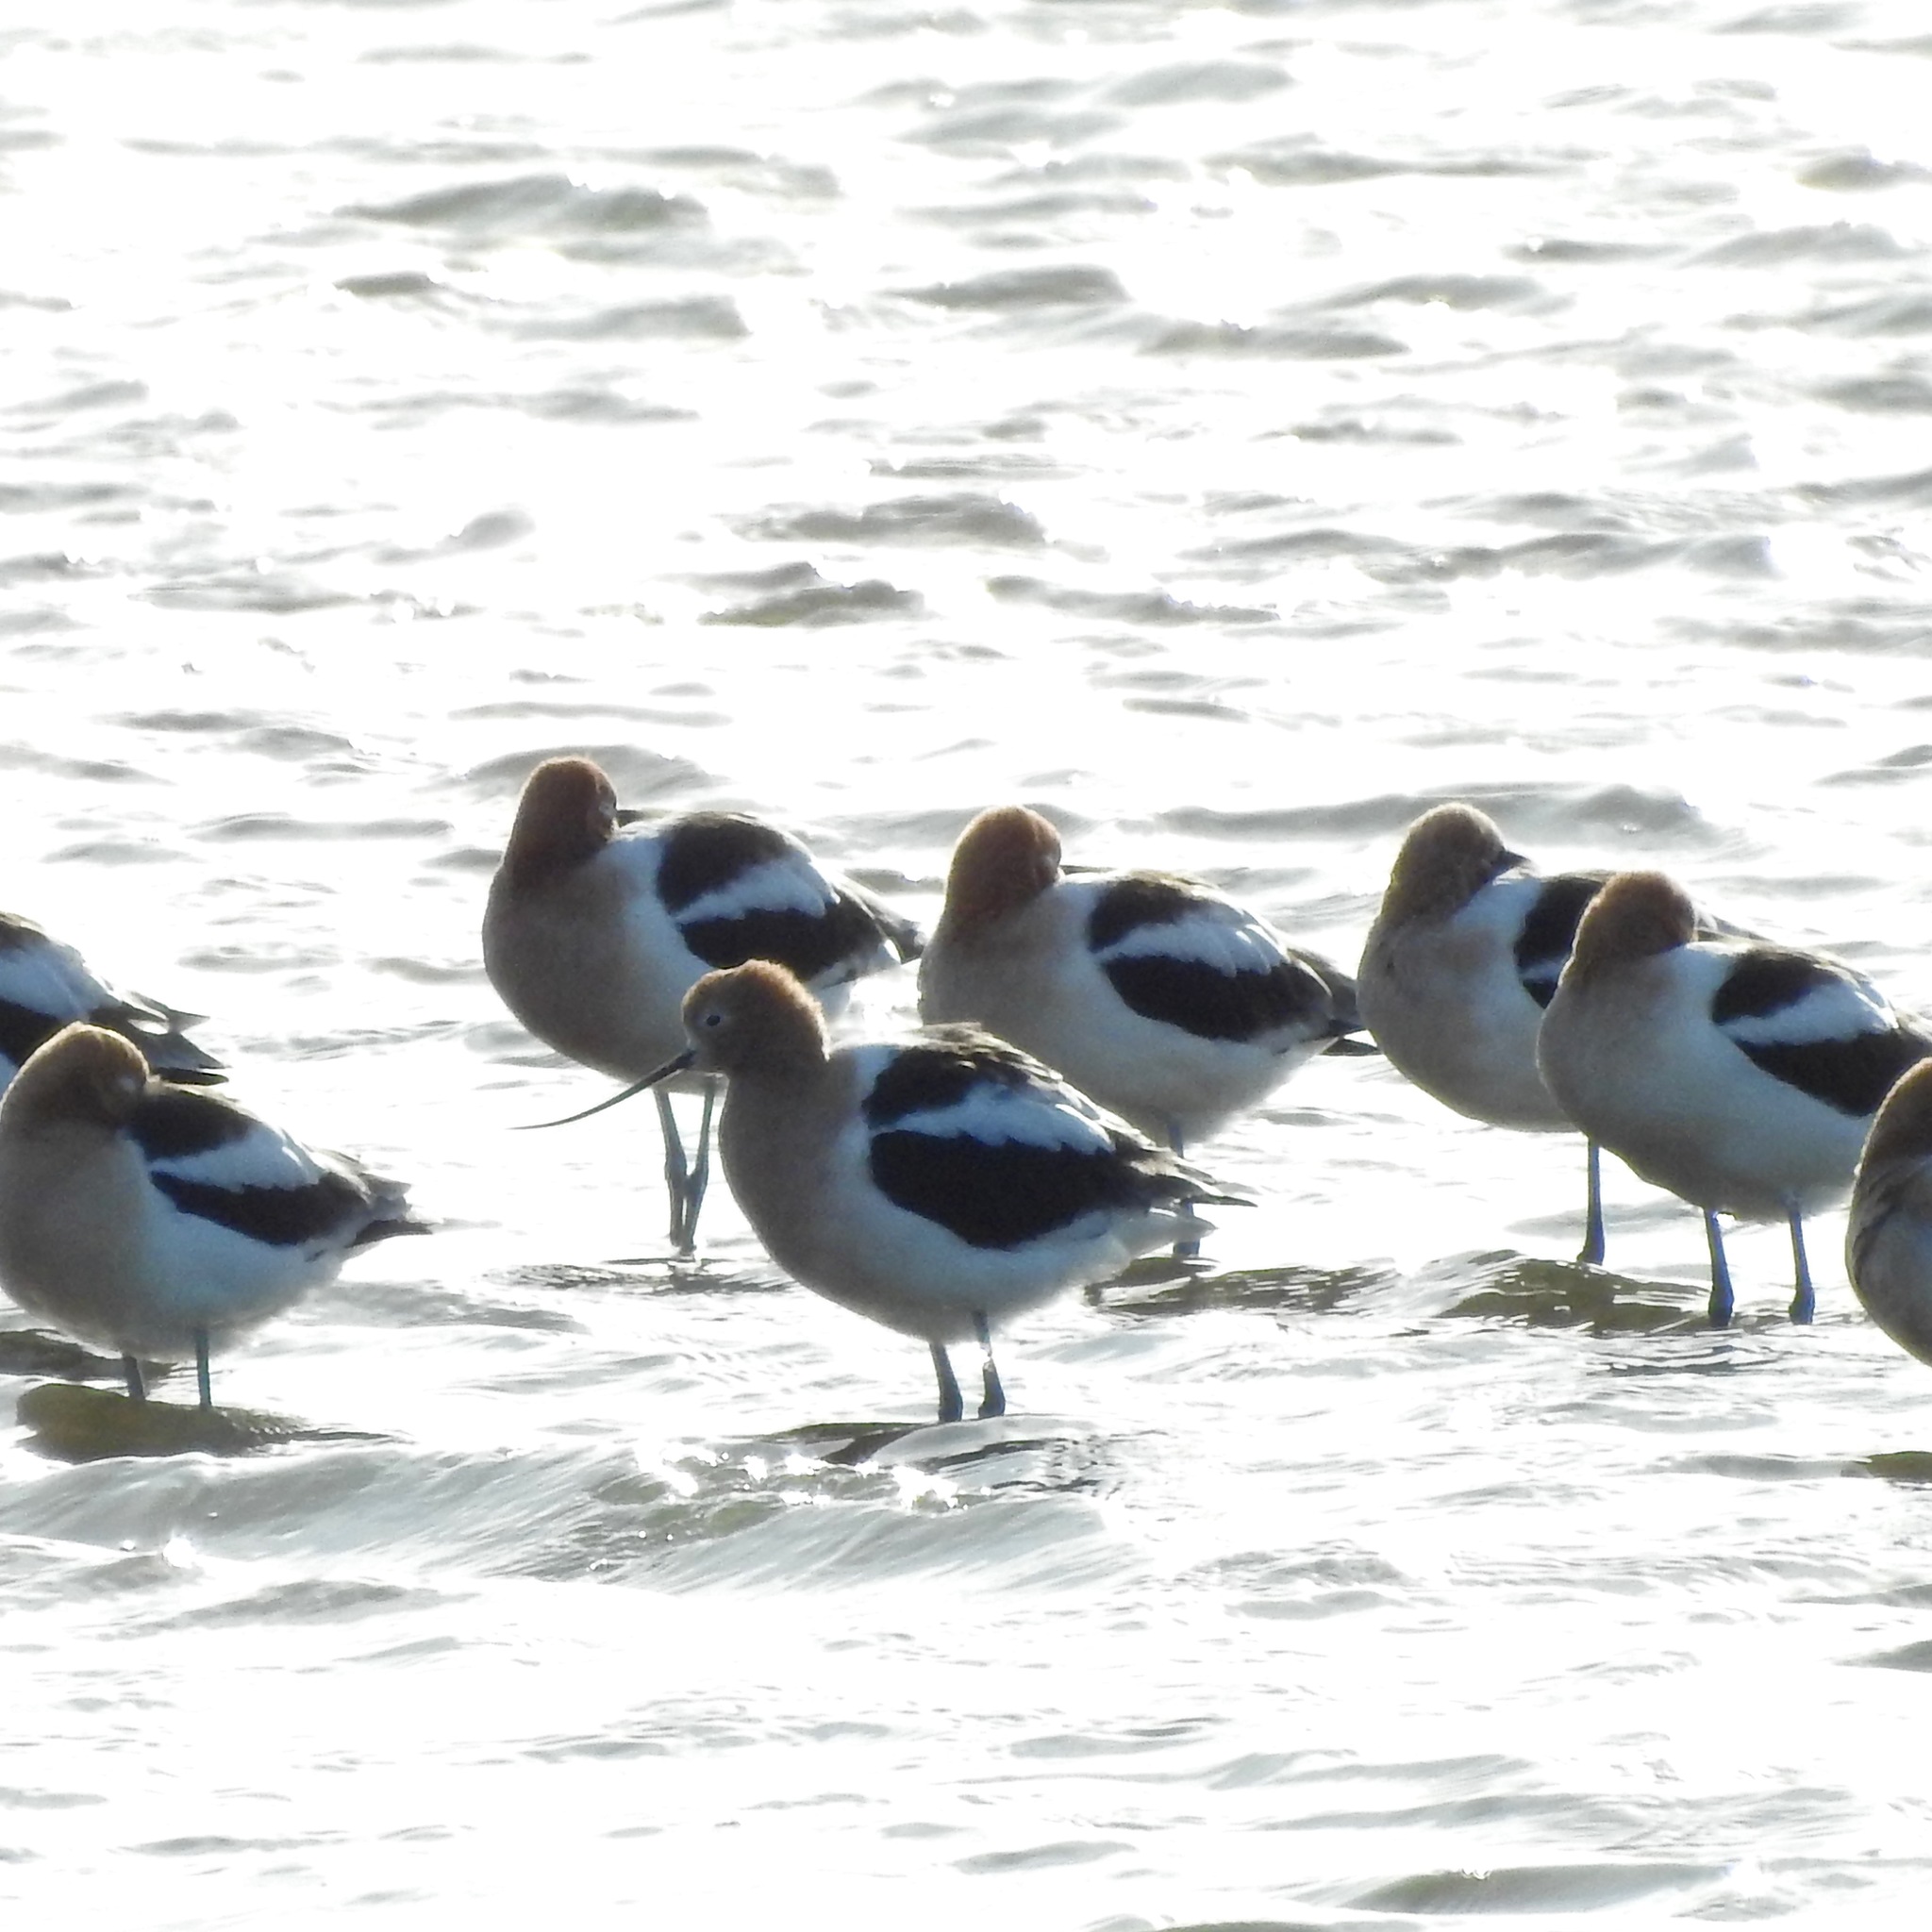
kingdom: Animalia
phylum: Chordata
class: Aves
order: Charadriiformes
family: Recurvirostridae
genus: Recurvirostra
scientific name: Recurvirostra americana
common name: American avocet
